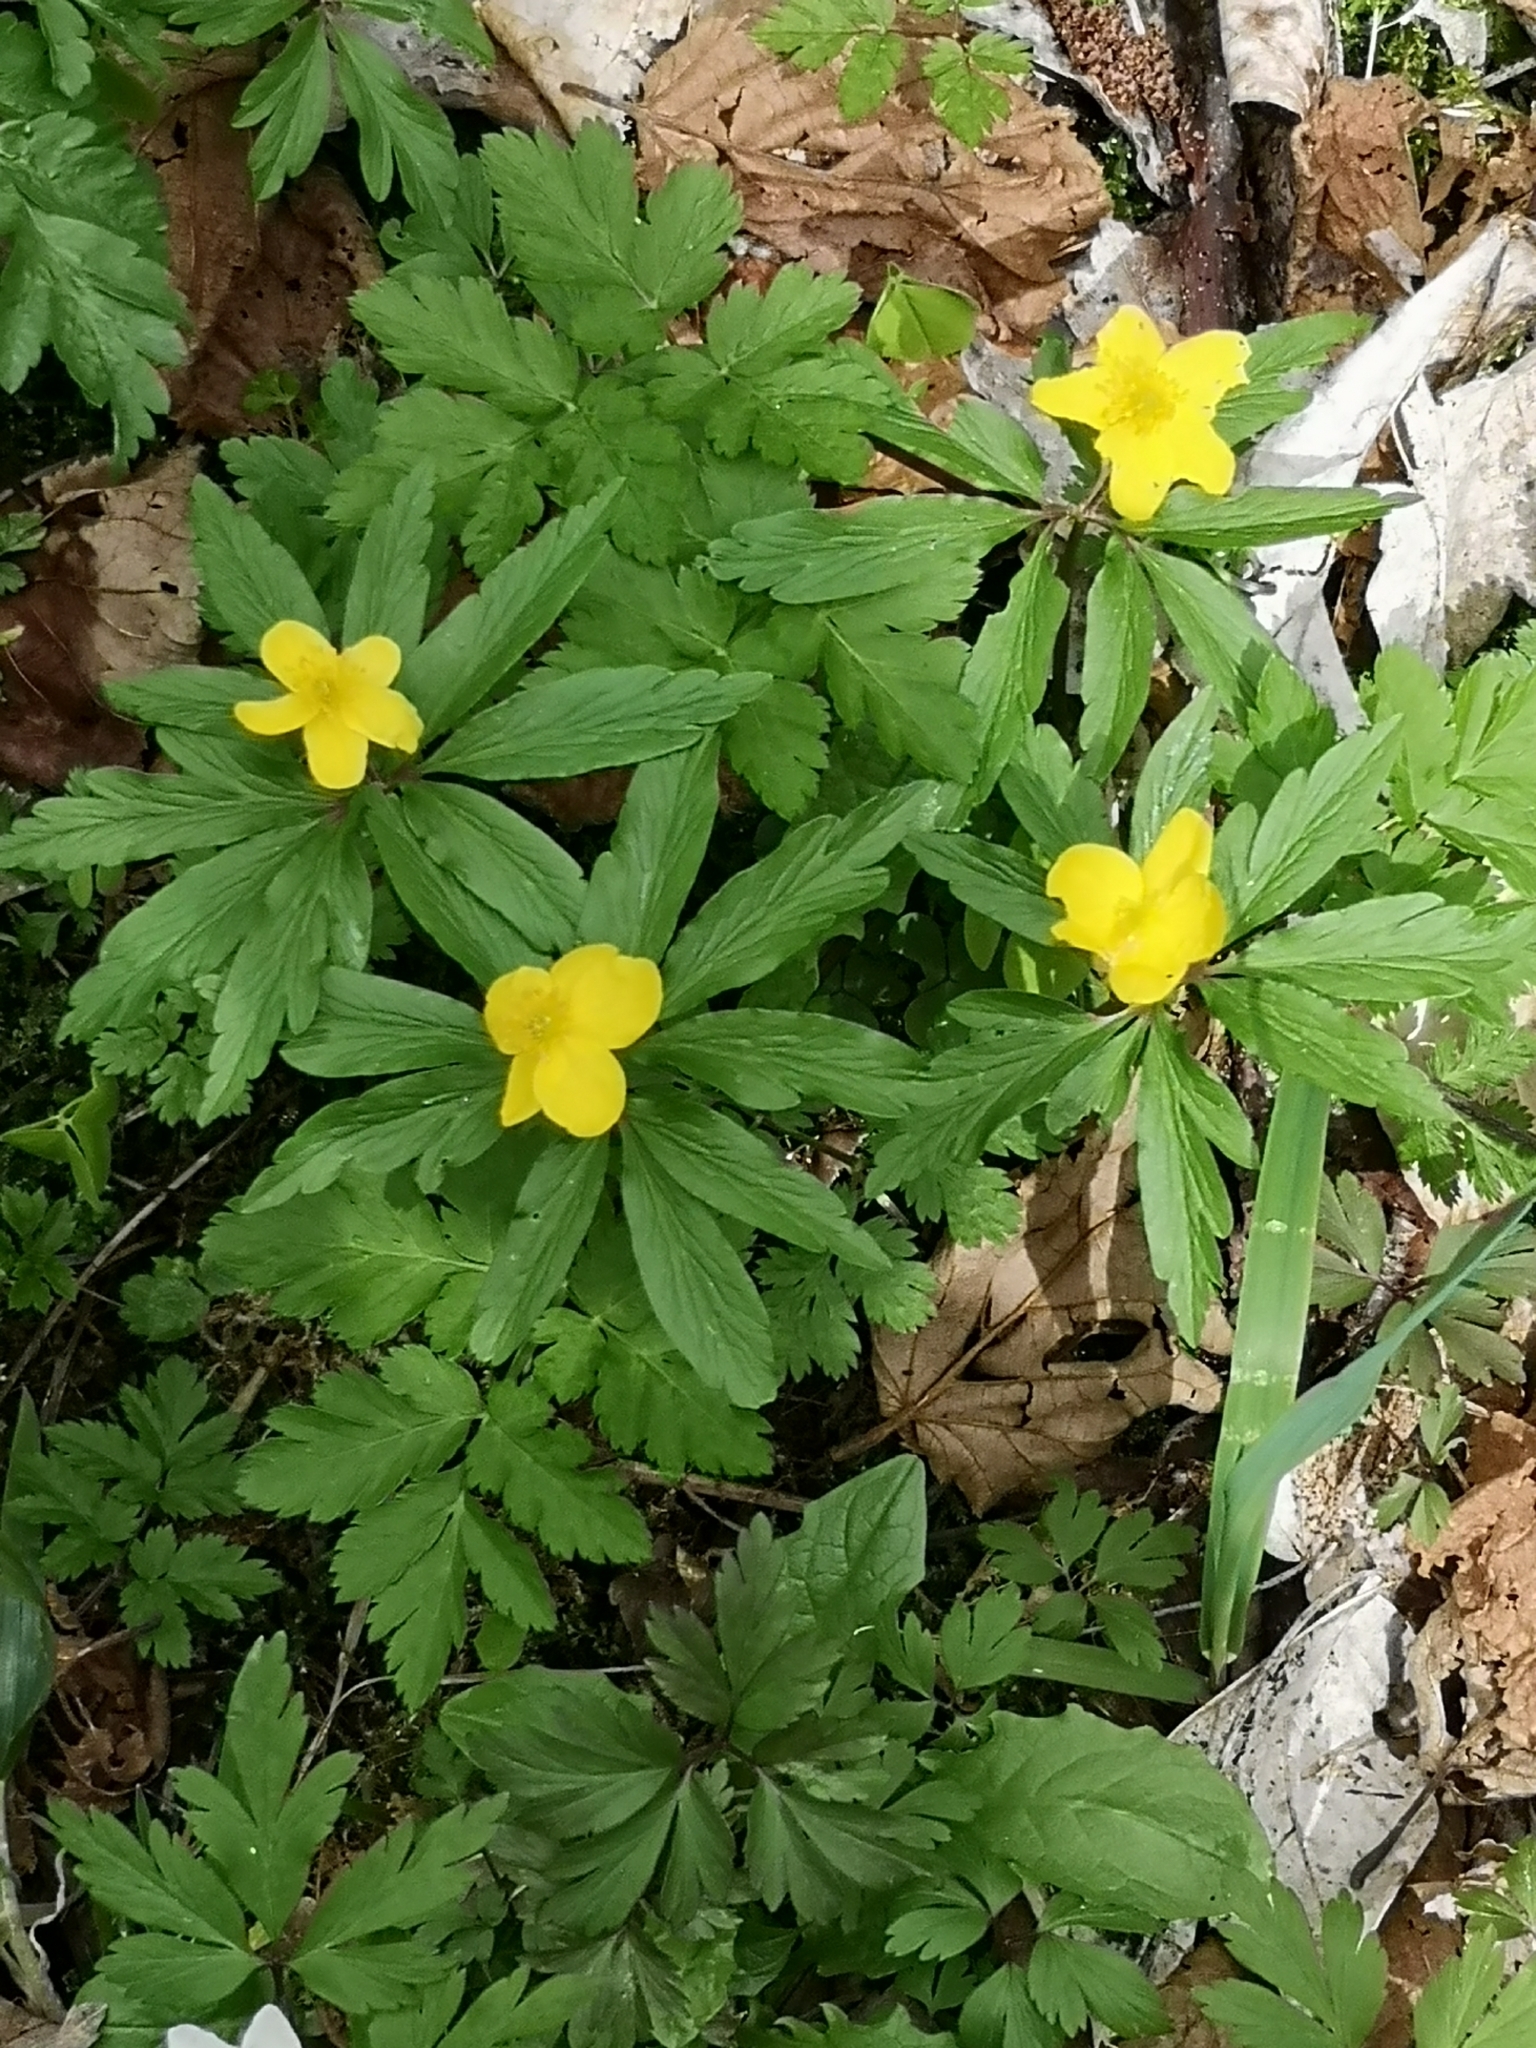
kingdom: Plantae
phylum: Tracheophyta
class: Magnoliopsida
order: Ranunculales
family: Ranunculaceae
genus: Anemone
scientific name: Anemone ranunculoides
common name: Yellow anemone
